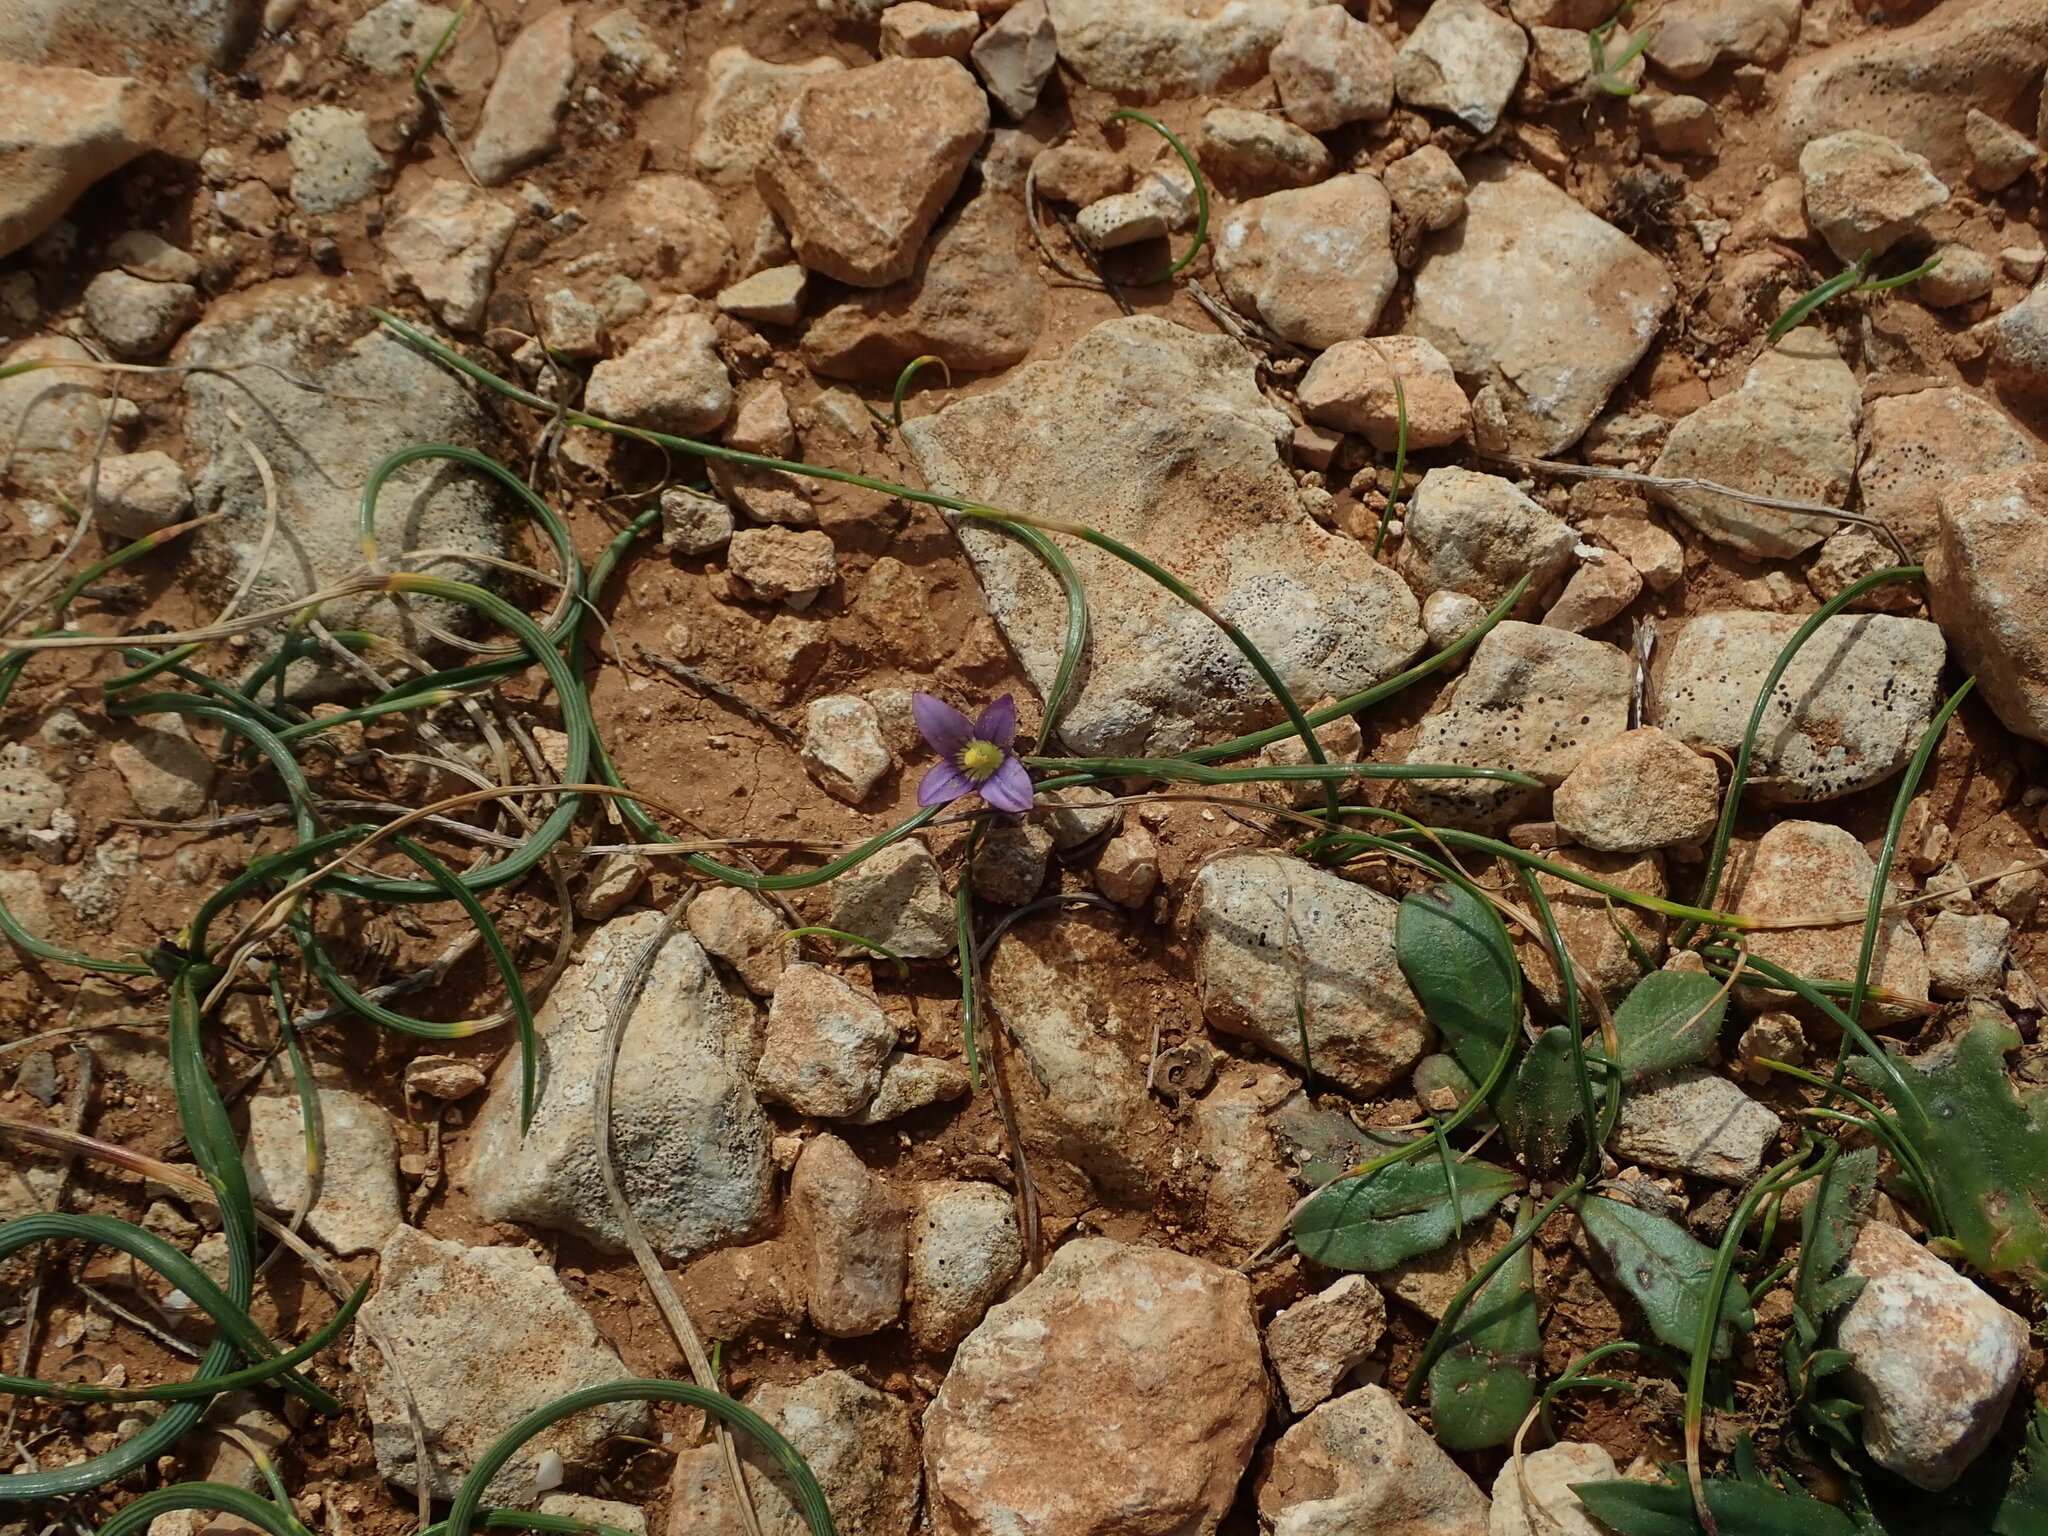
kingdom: Plantae
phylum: Tracheophyta
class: Liliopsida
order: Asparagales
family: Iridaceae
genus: Romulea
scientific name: Romulea variicolor
